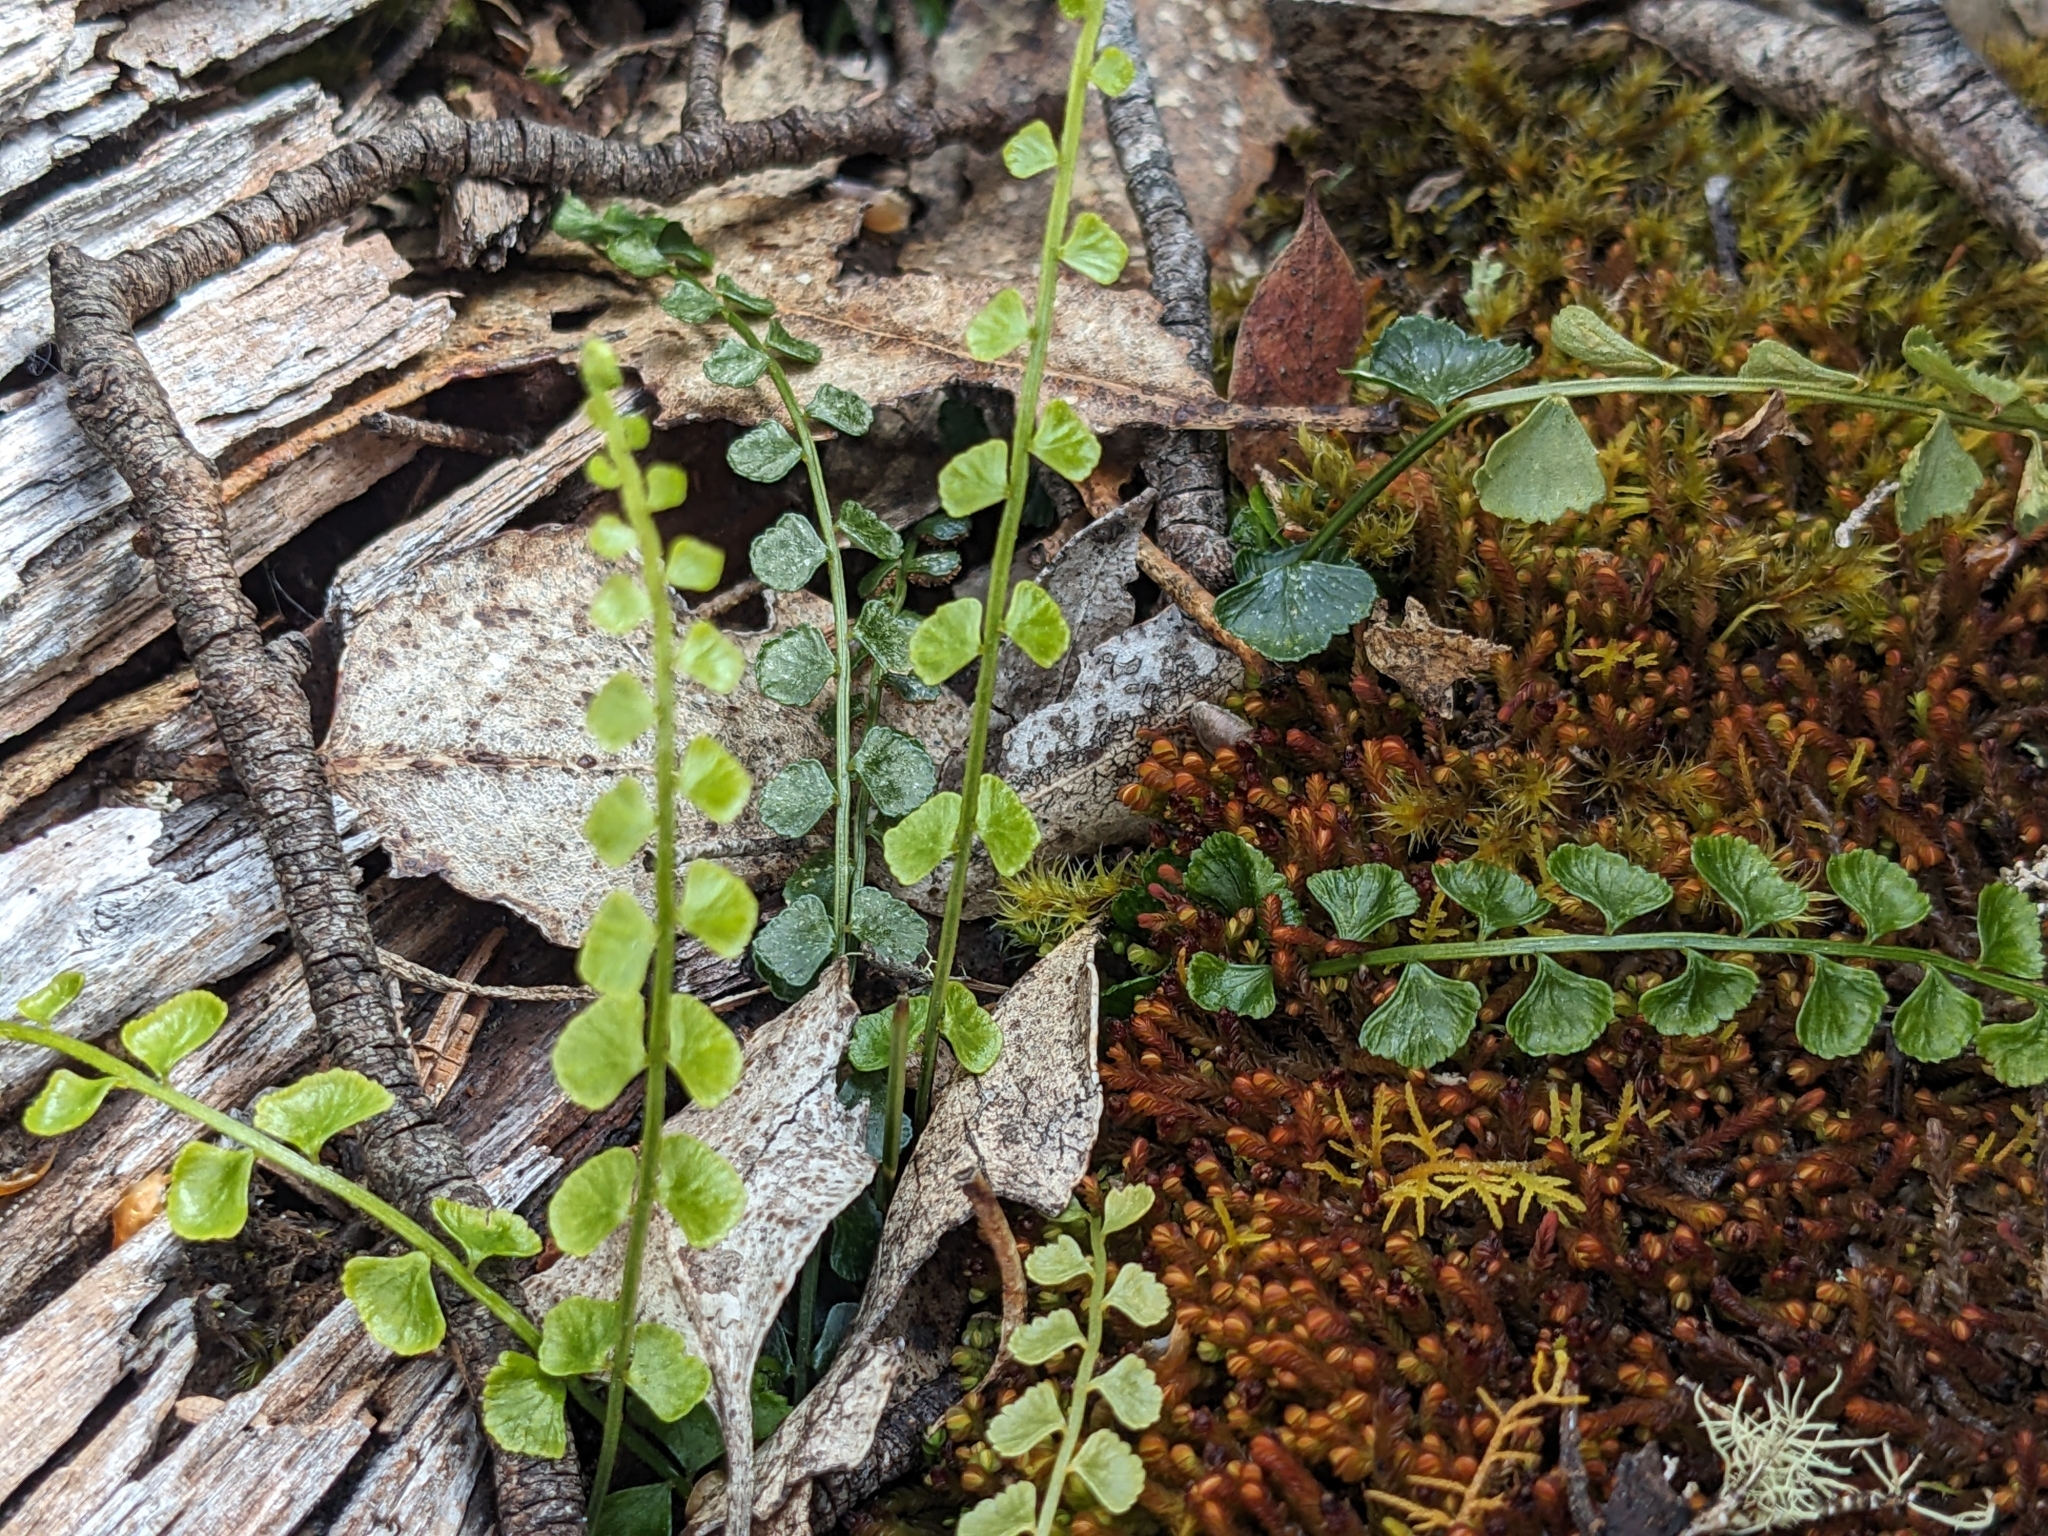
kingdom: Plantae
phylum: Tracheophyta
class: Polypodiopsida
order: Polypodiales
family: Aspleniaceae
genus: Asplenium
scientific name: Asplenium flabellifolium
